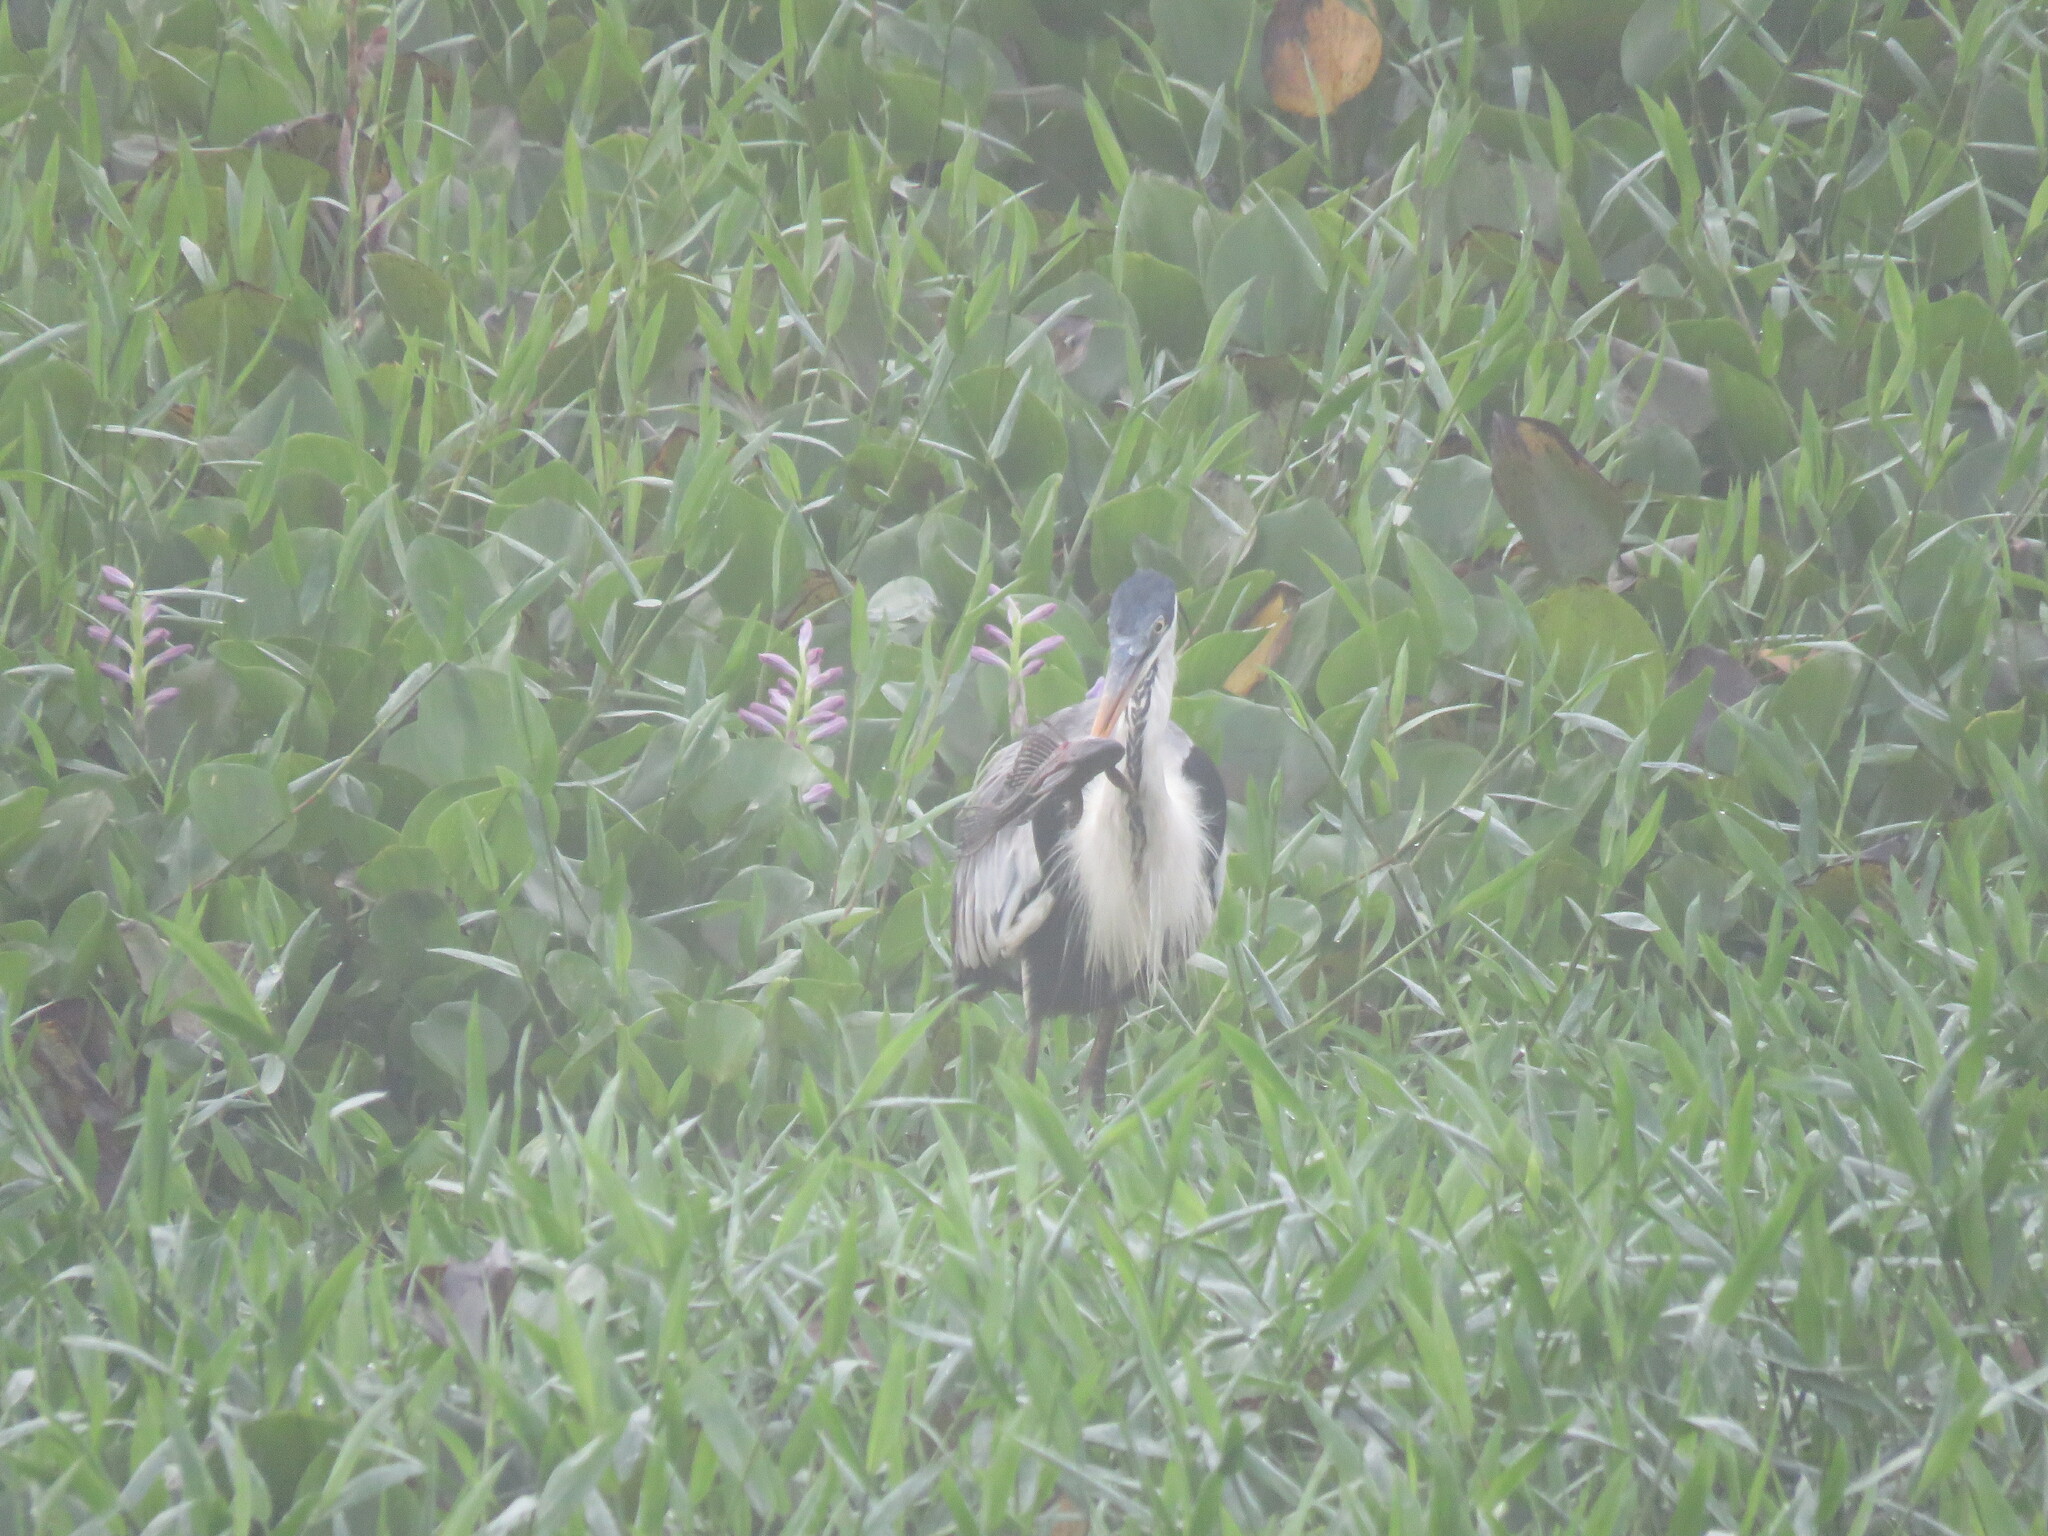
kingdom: Animalia
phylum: Chordata
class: Aves
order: Pelecaniformes
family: Ardeidae
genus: Ardea
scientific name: Ardea cocoi
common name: Cocoi heron
